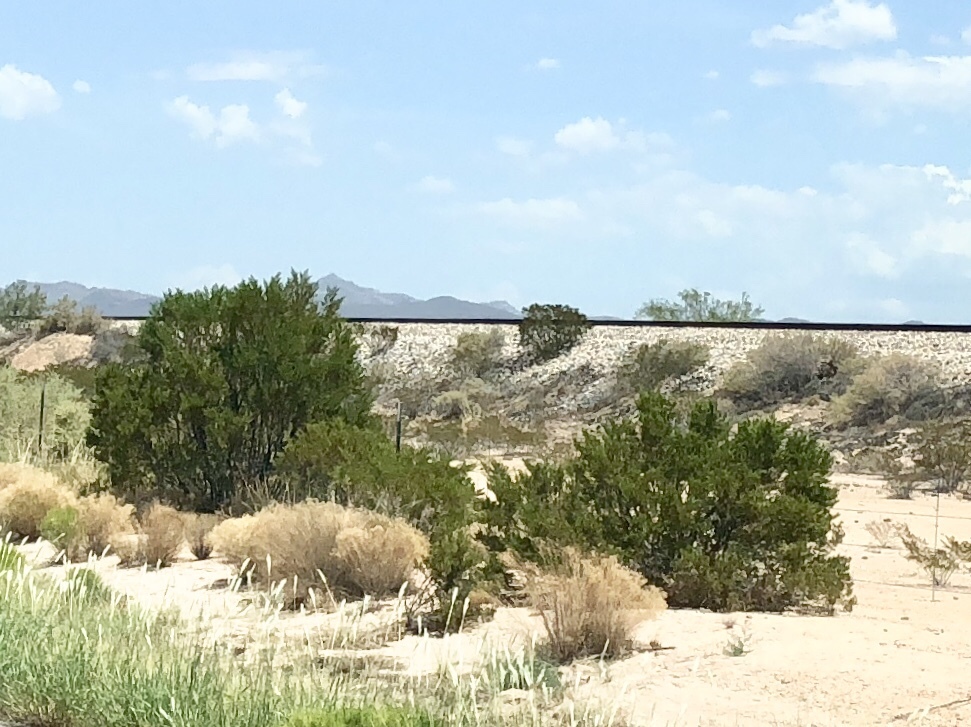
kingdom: Plantae
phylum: Tracheophyta
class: Magnoliopsida
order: Zygophyllales
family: Zygophyllaceae
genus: Larrea
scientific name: Larrea tridentata
